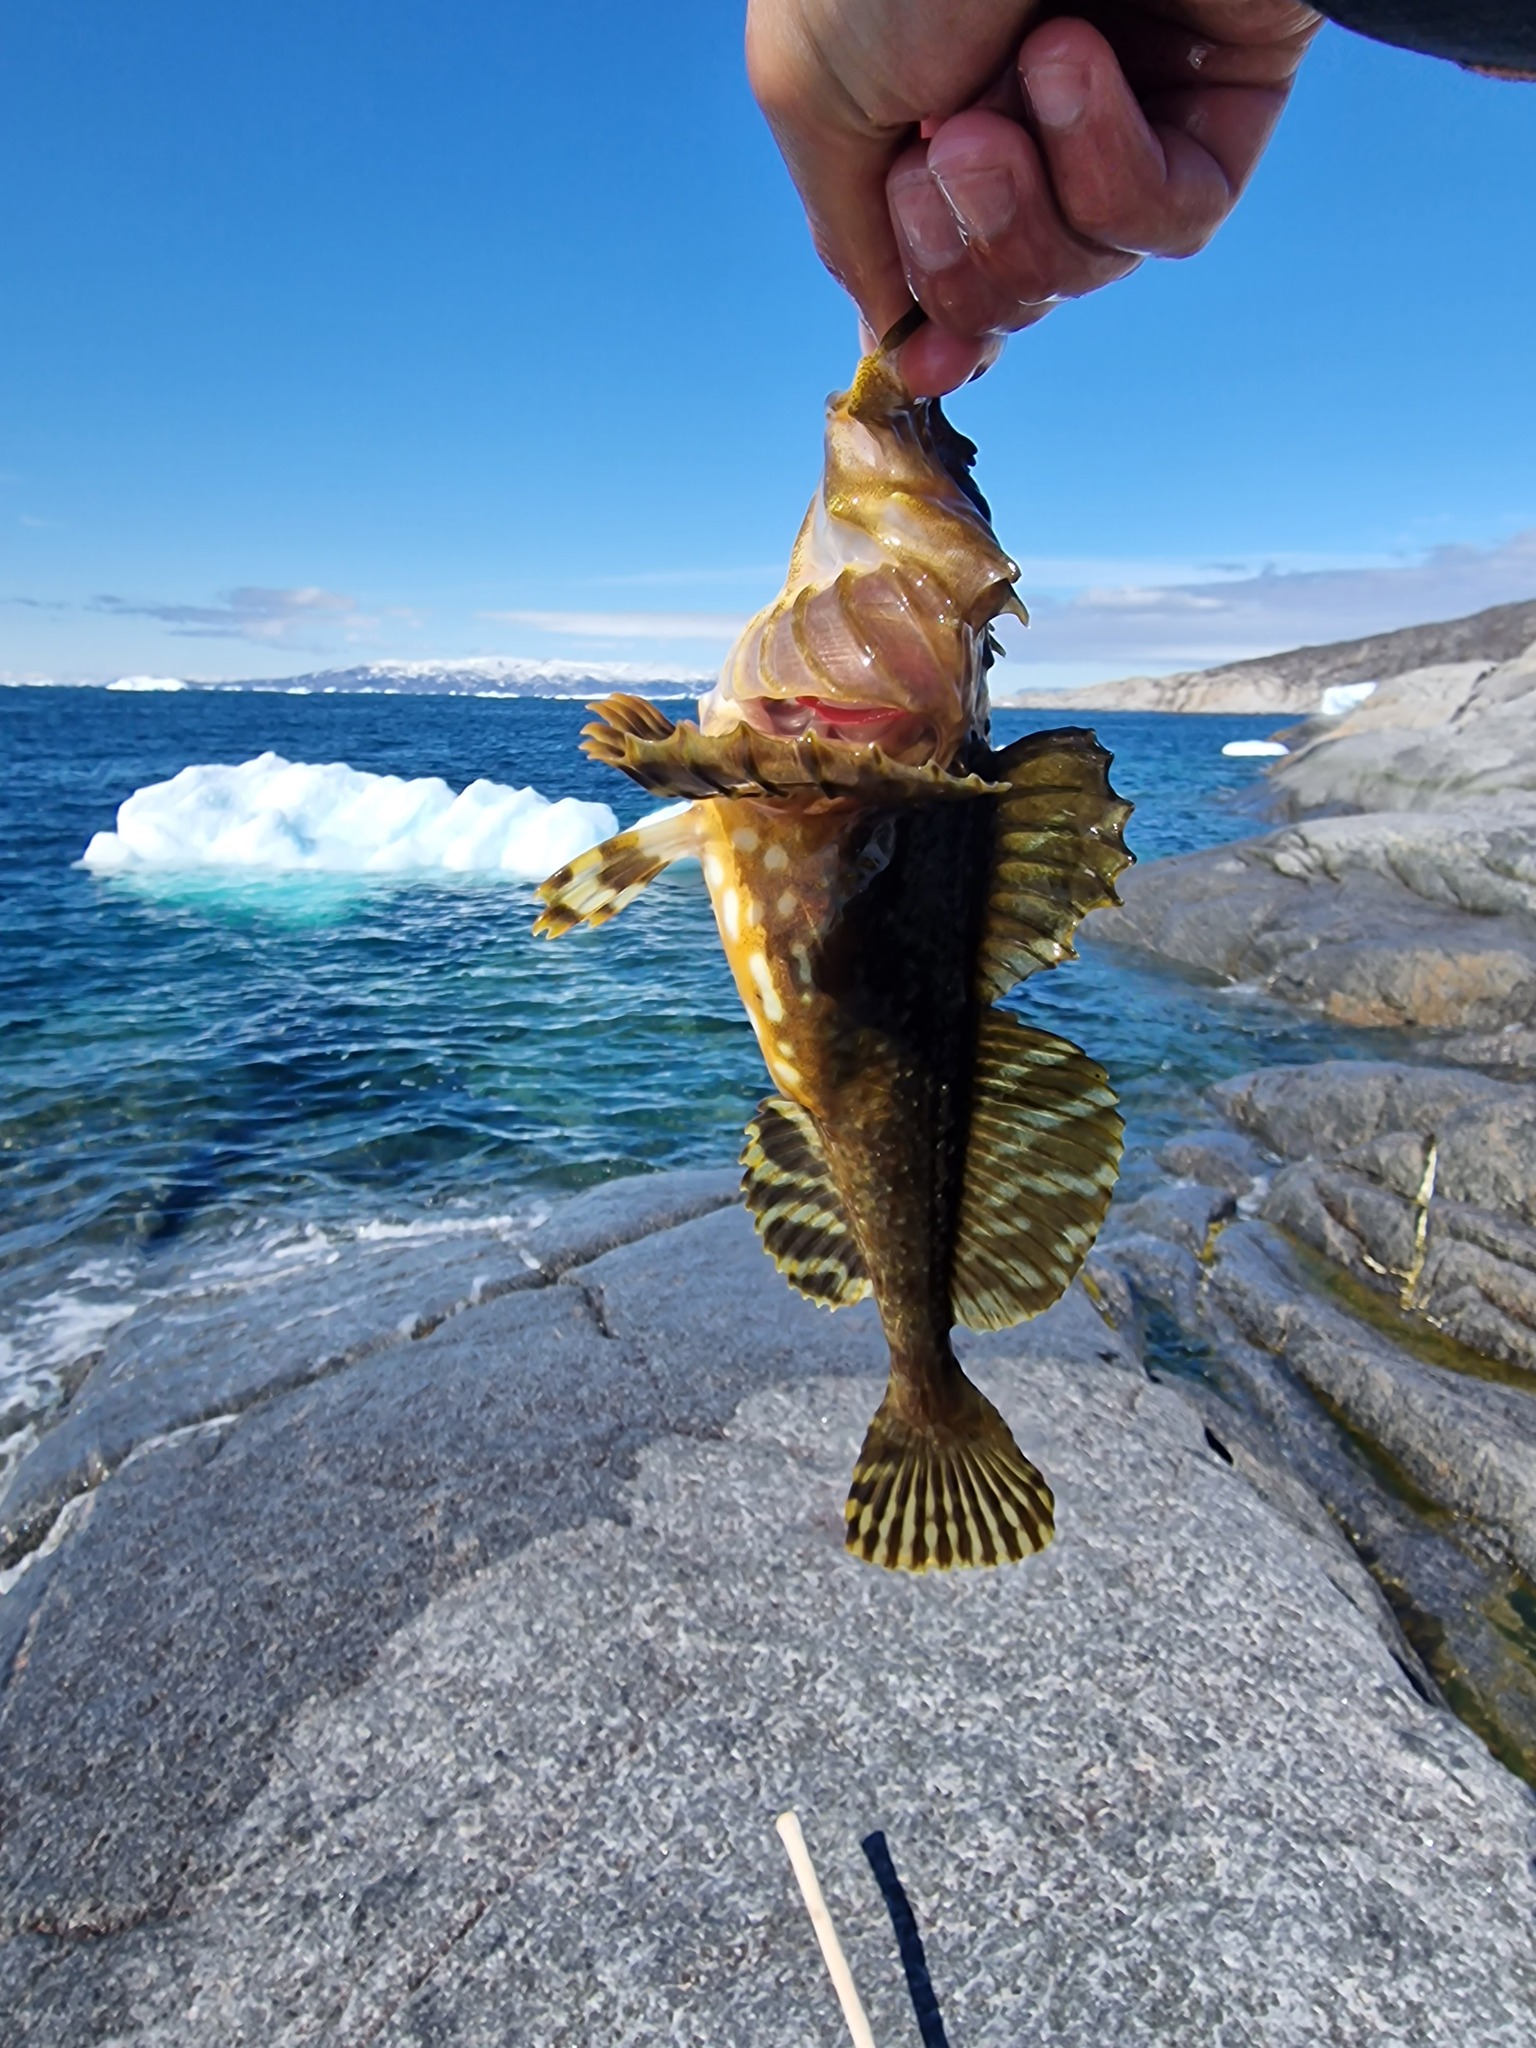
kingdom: Animalia
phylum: Chordata
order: Scorpaeniformes
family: Cottidae
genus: Myoxocephalus
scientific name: Myoxocephalus scorpius
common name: Shorthorn sculpin
